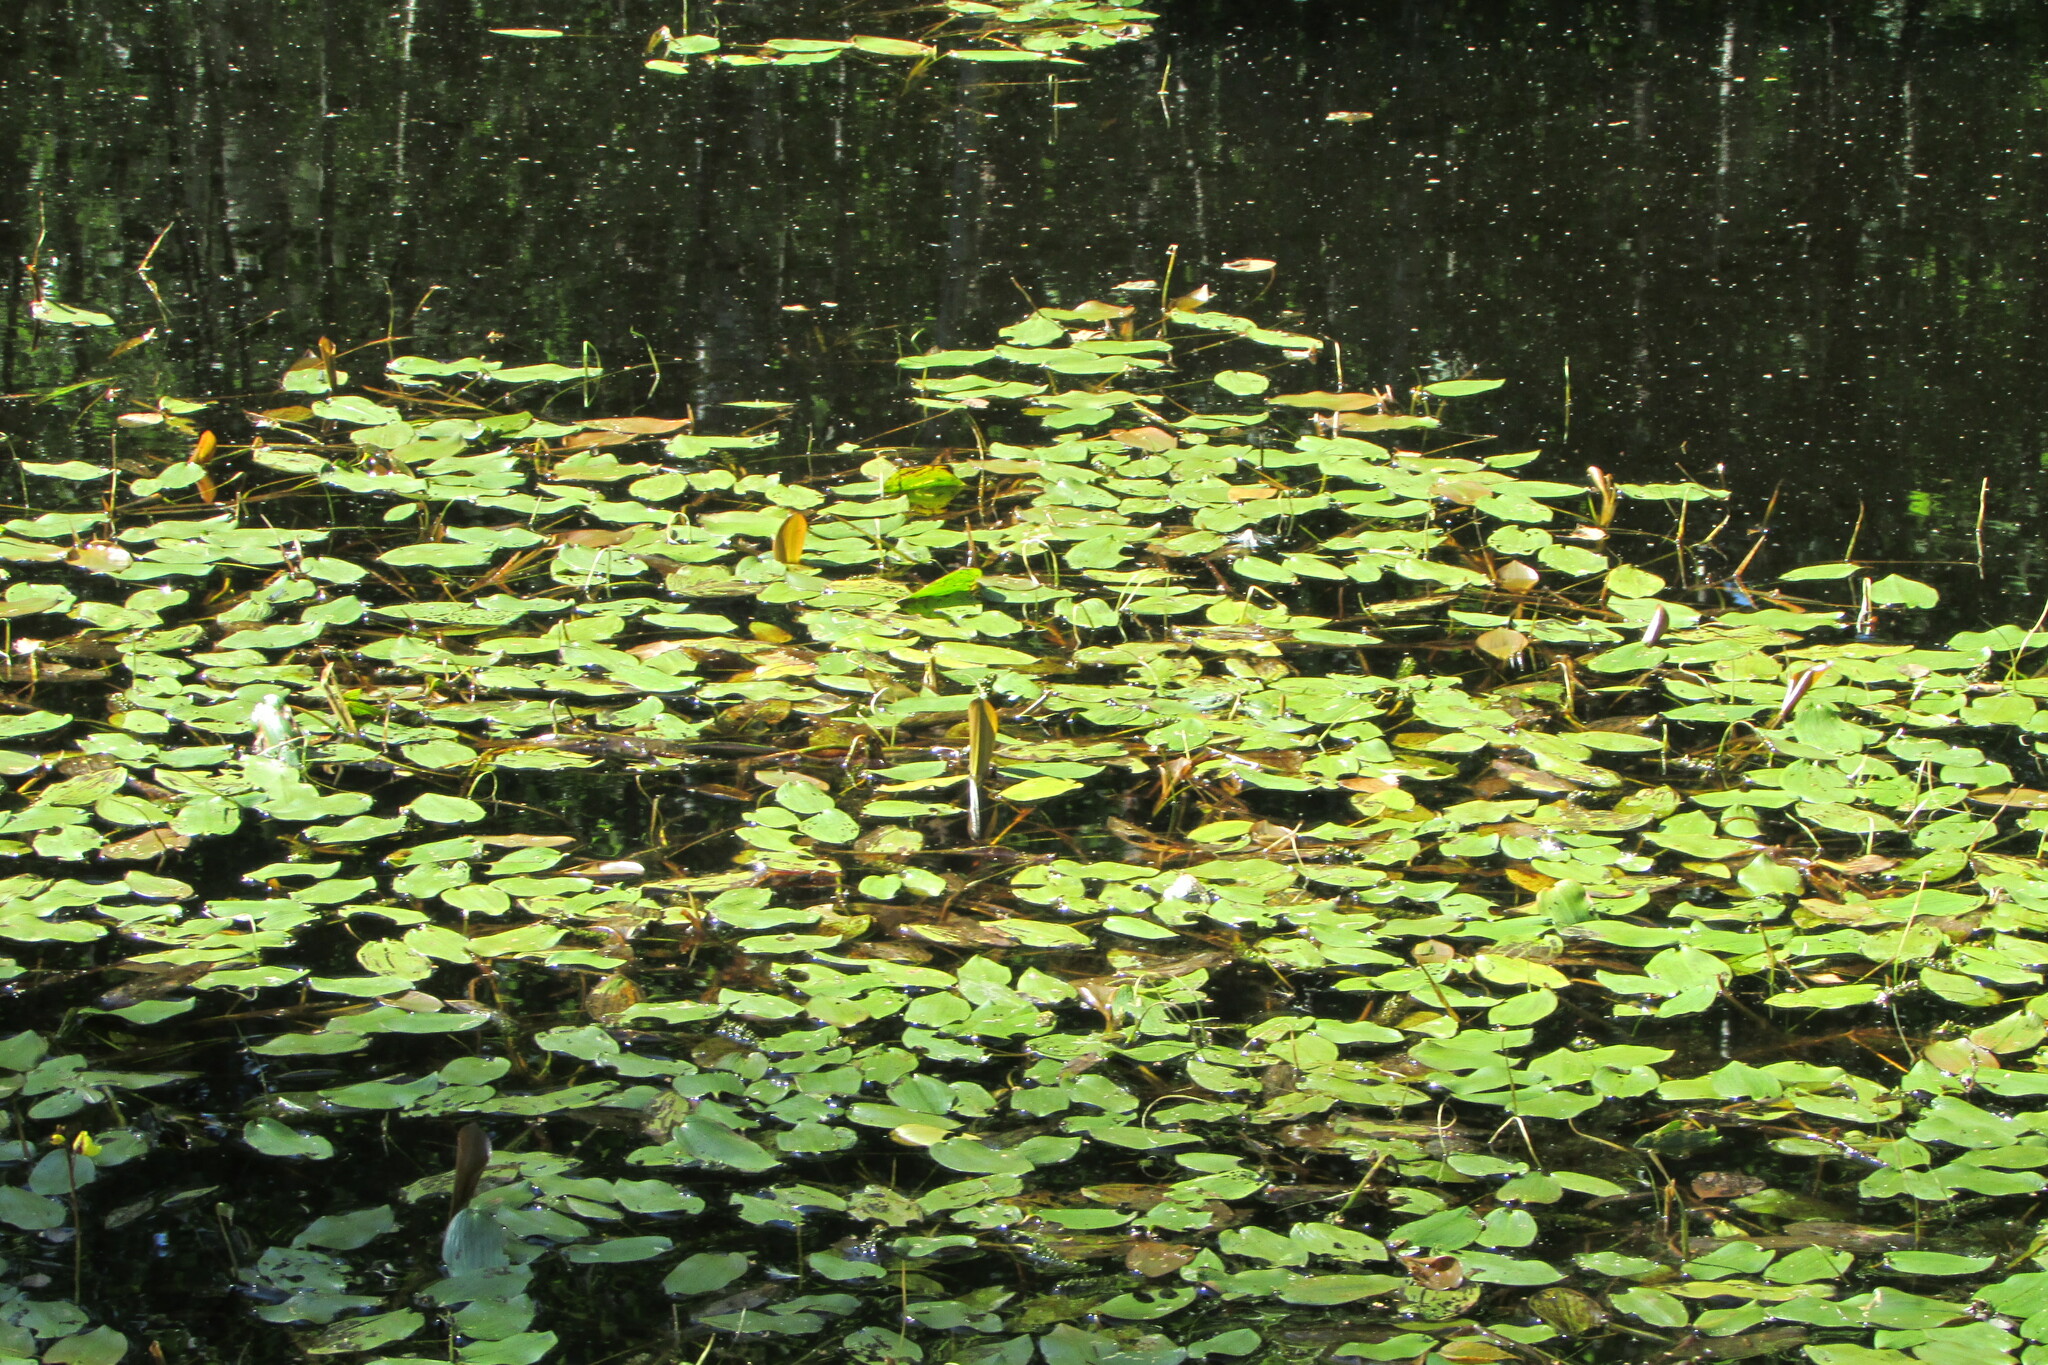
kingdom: Plantae
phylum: Tracheophyta
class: Liliopsida
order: Alismatales
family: Potamogetonaceae
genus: Potamogeton
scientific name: Potamogeton natans
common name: Broad-leaved pondweed
